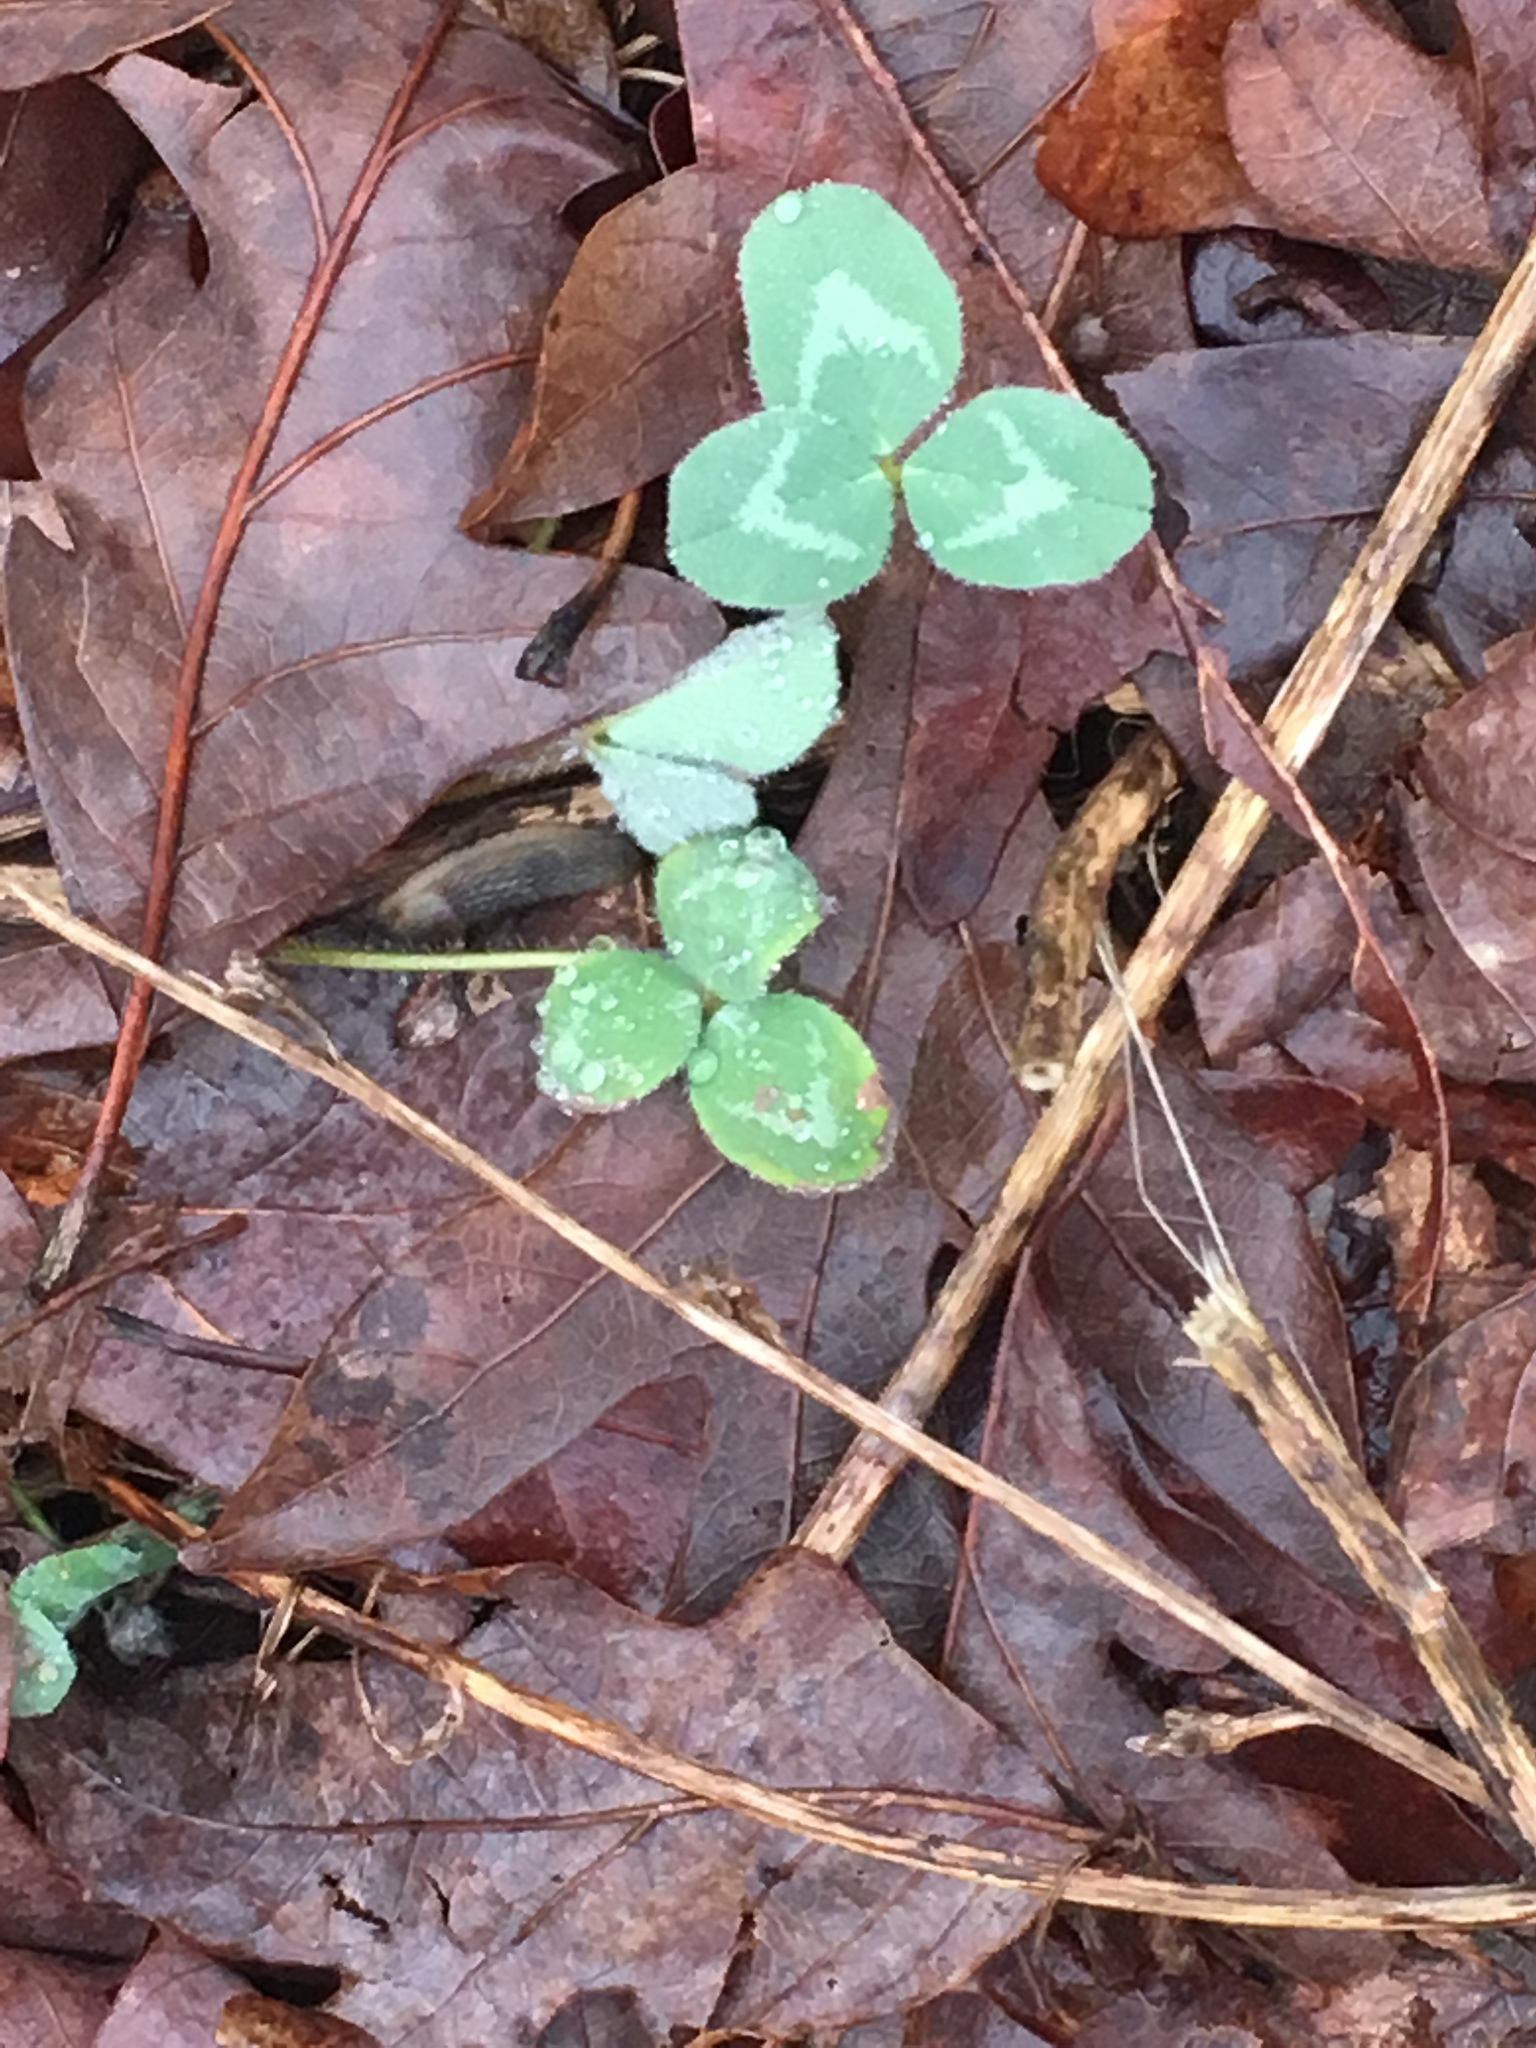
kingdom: Plantae
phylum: Tracheophyta
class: Magnoliopsida
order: Fabales
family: Fabaceae
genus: Trifolium
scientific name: Trifolium pratense
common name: Red clover
